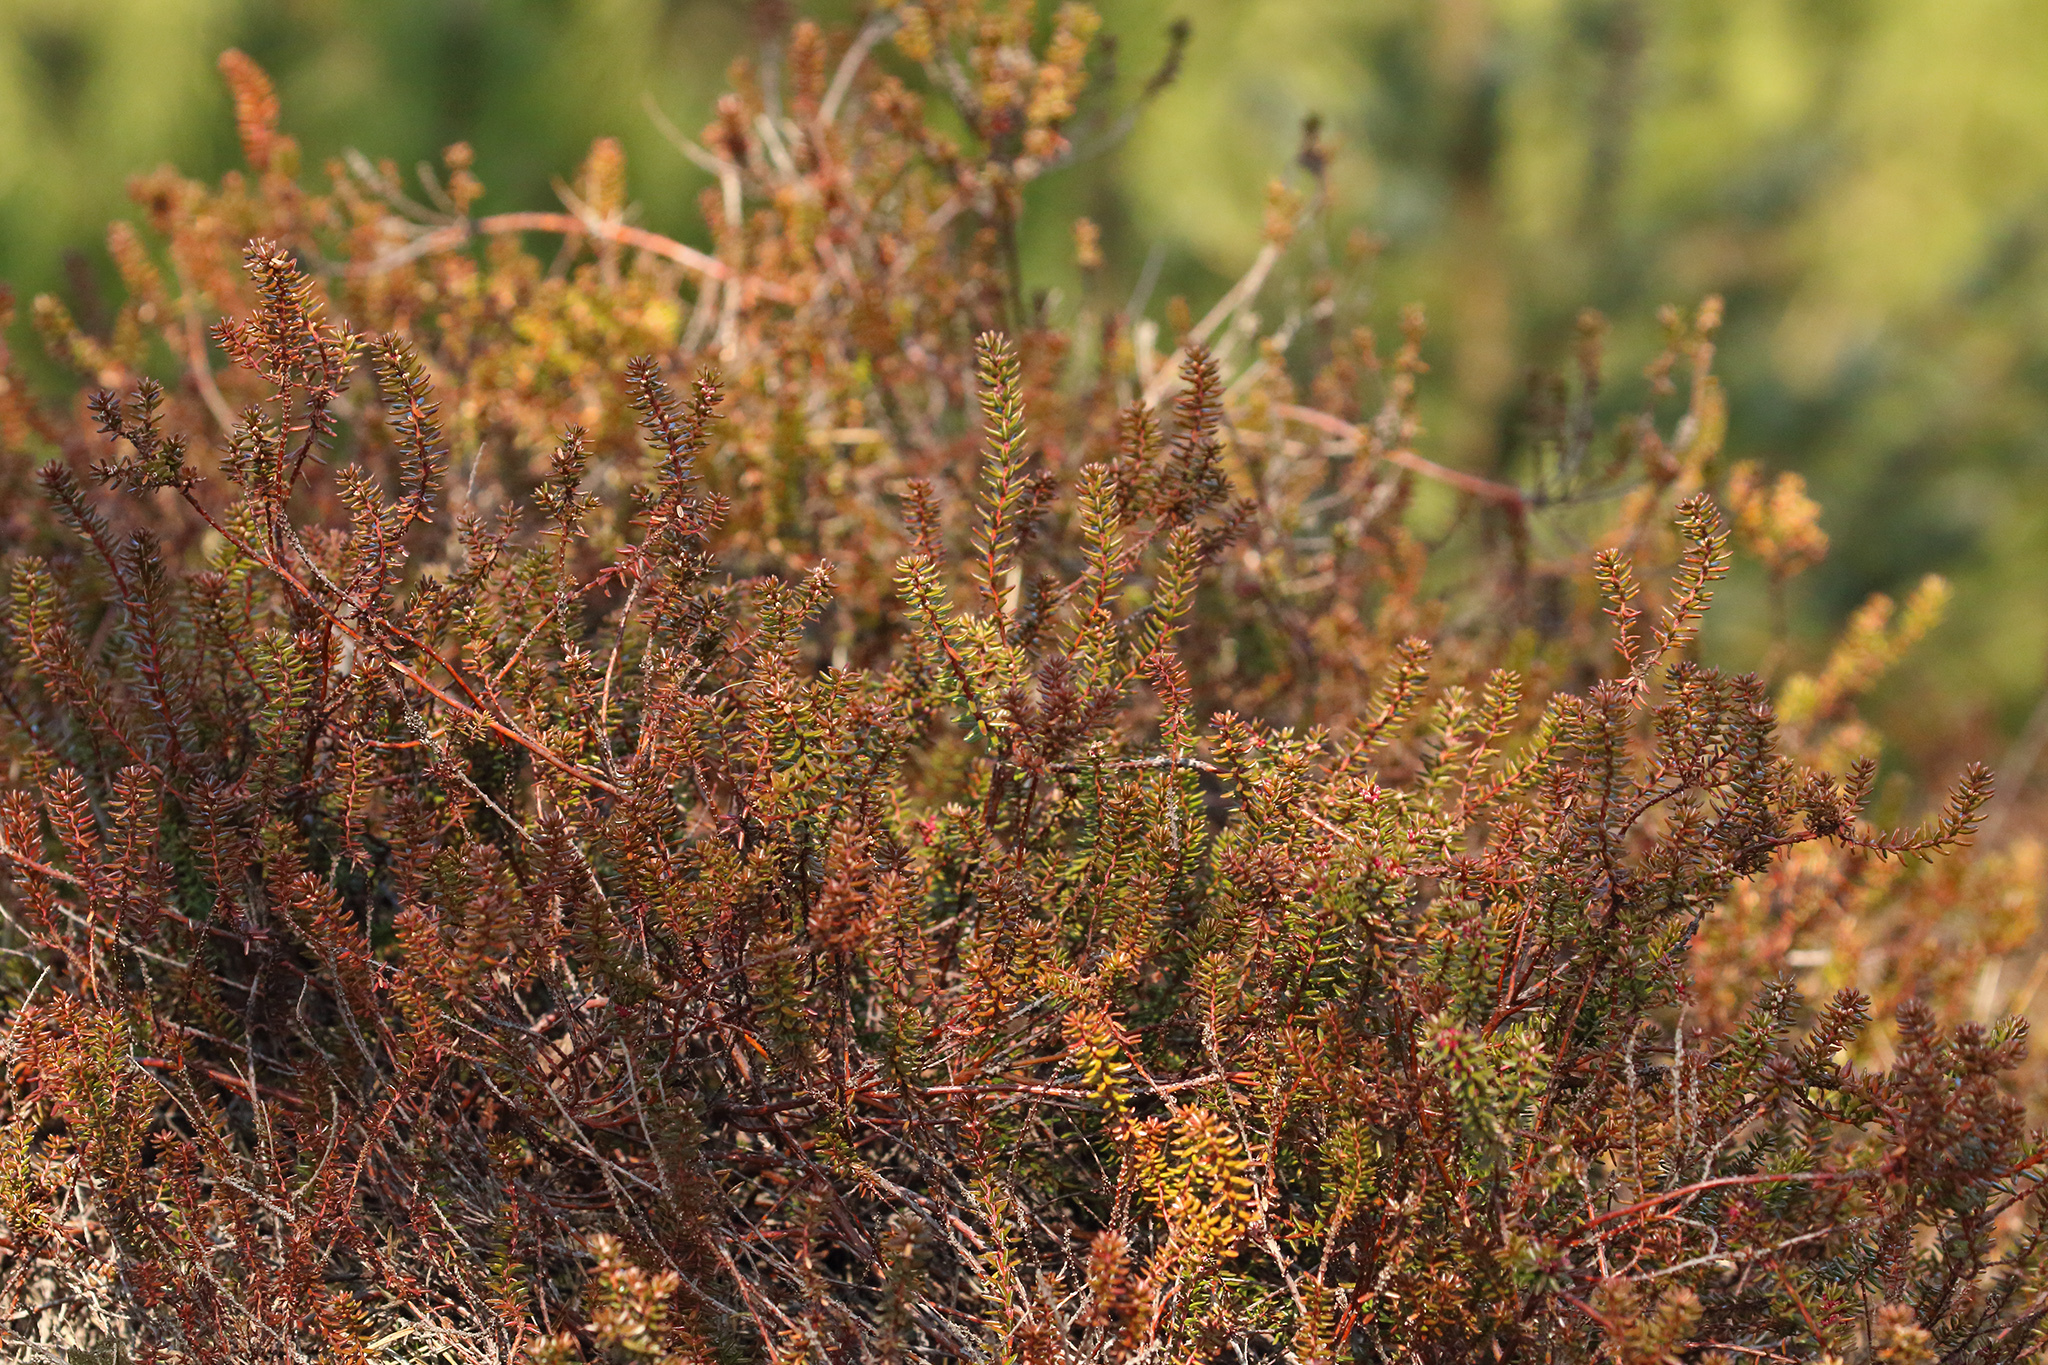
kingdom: Plantae
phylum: Tracheophyta
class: Magnoliopsida
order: Ericales
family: Ericaceae
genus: Empetrum
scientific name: Empetrum nigrum
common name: Black crowberry
